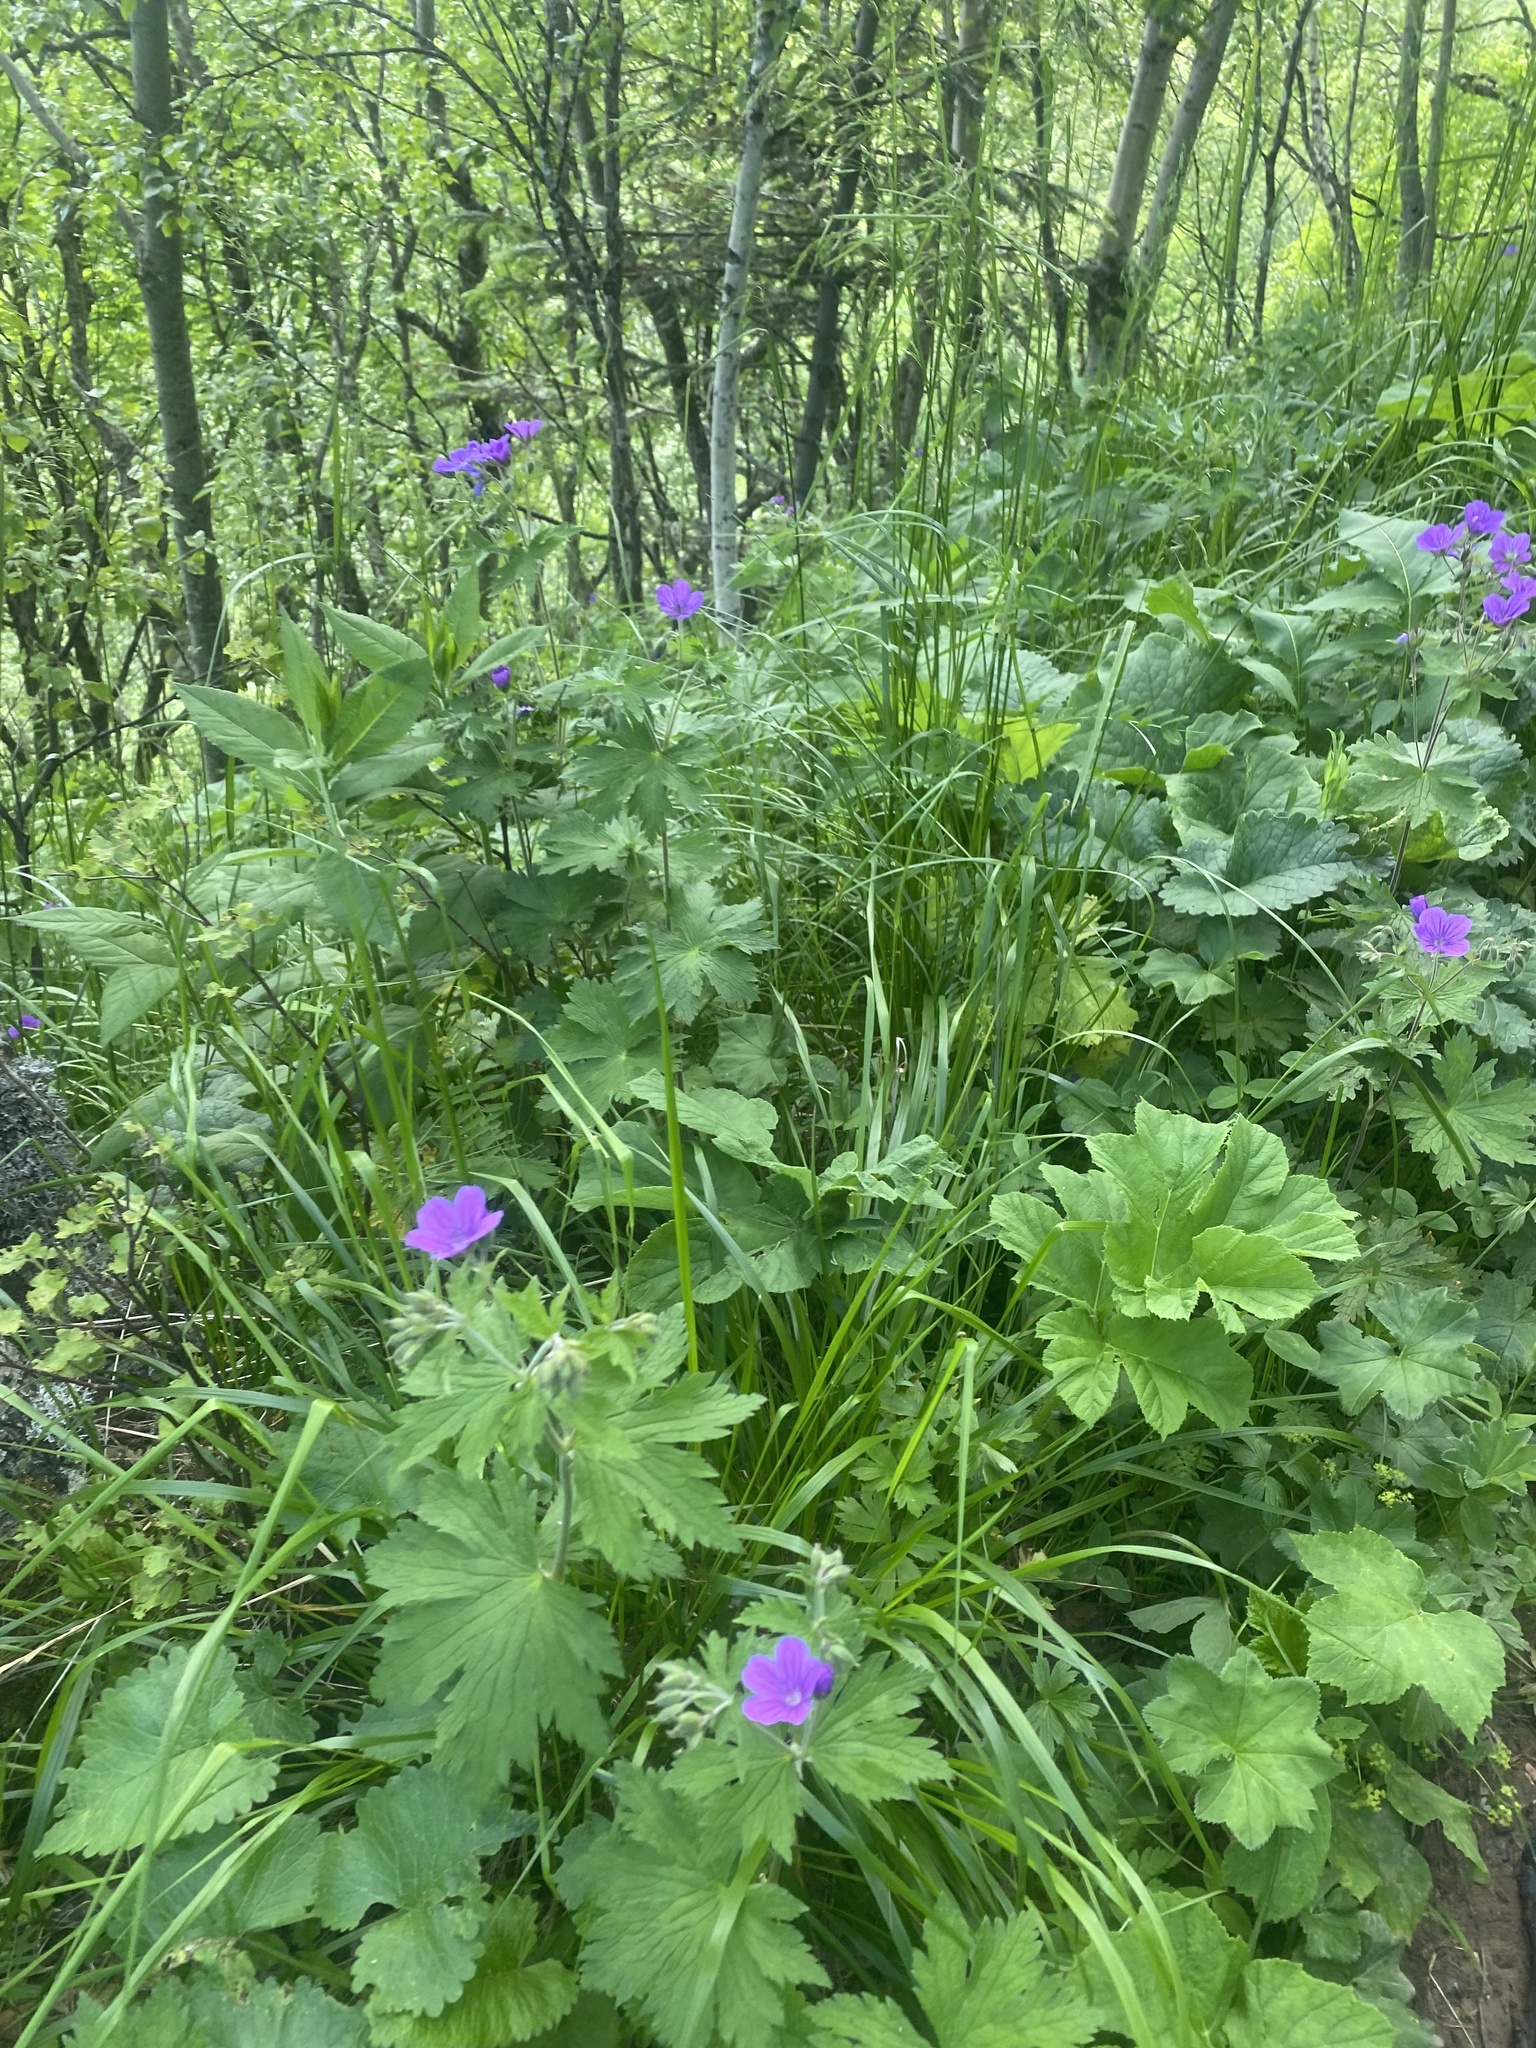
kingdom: Plantae
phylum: Tracheophyta
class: Magnoliopsida
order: Geraniales
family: Geraniaceae
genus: Geranium
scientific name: Geranium sylvaticum
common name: Wood crane's-bill
